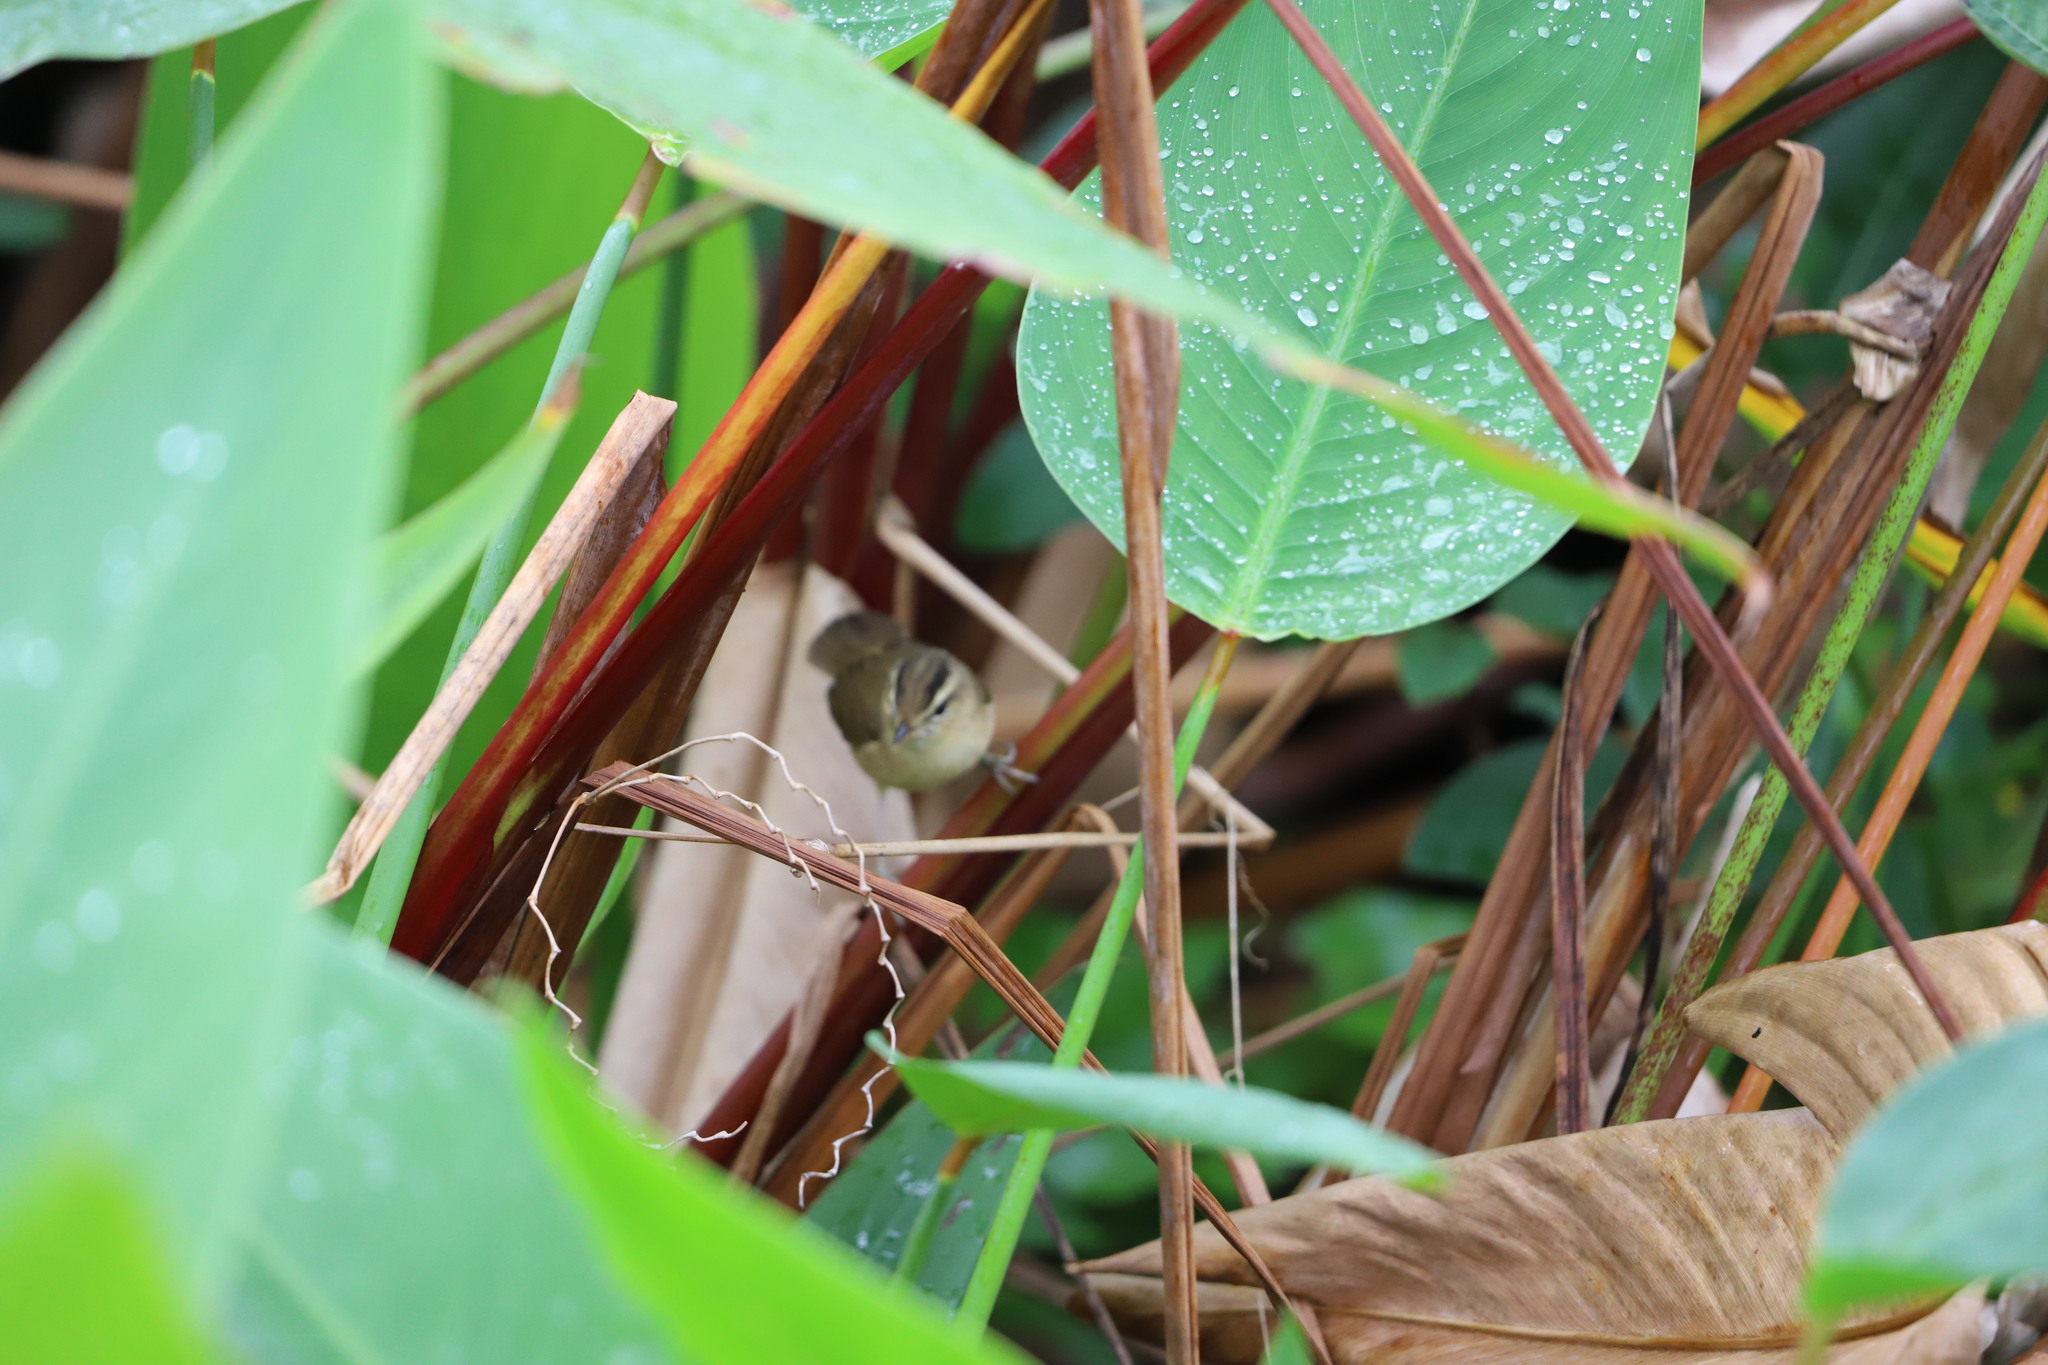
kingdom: Animalia
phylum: Chordata
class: Aves
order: Passeriformes
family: Acrocephalidae
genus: Acrocephalus
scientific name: Acrocephalus bistrigiceps
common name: Black-browed reed warbler
